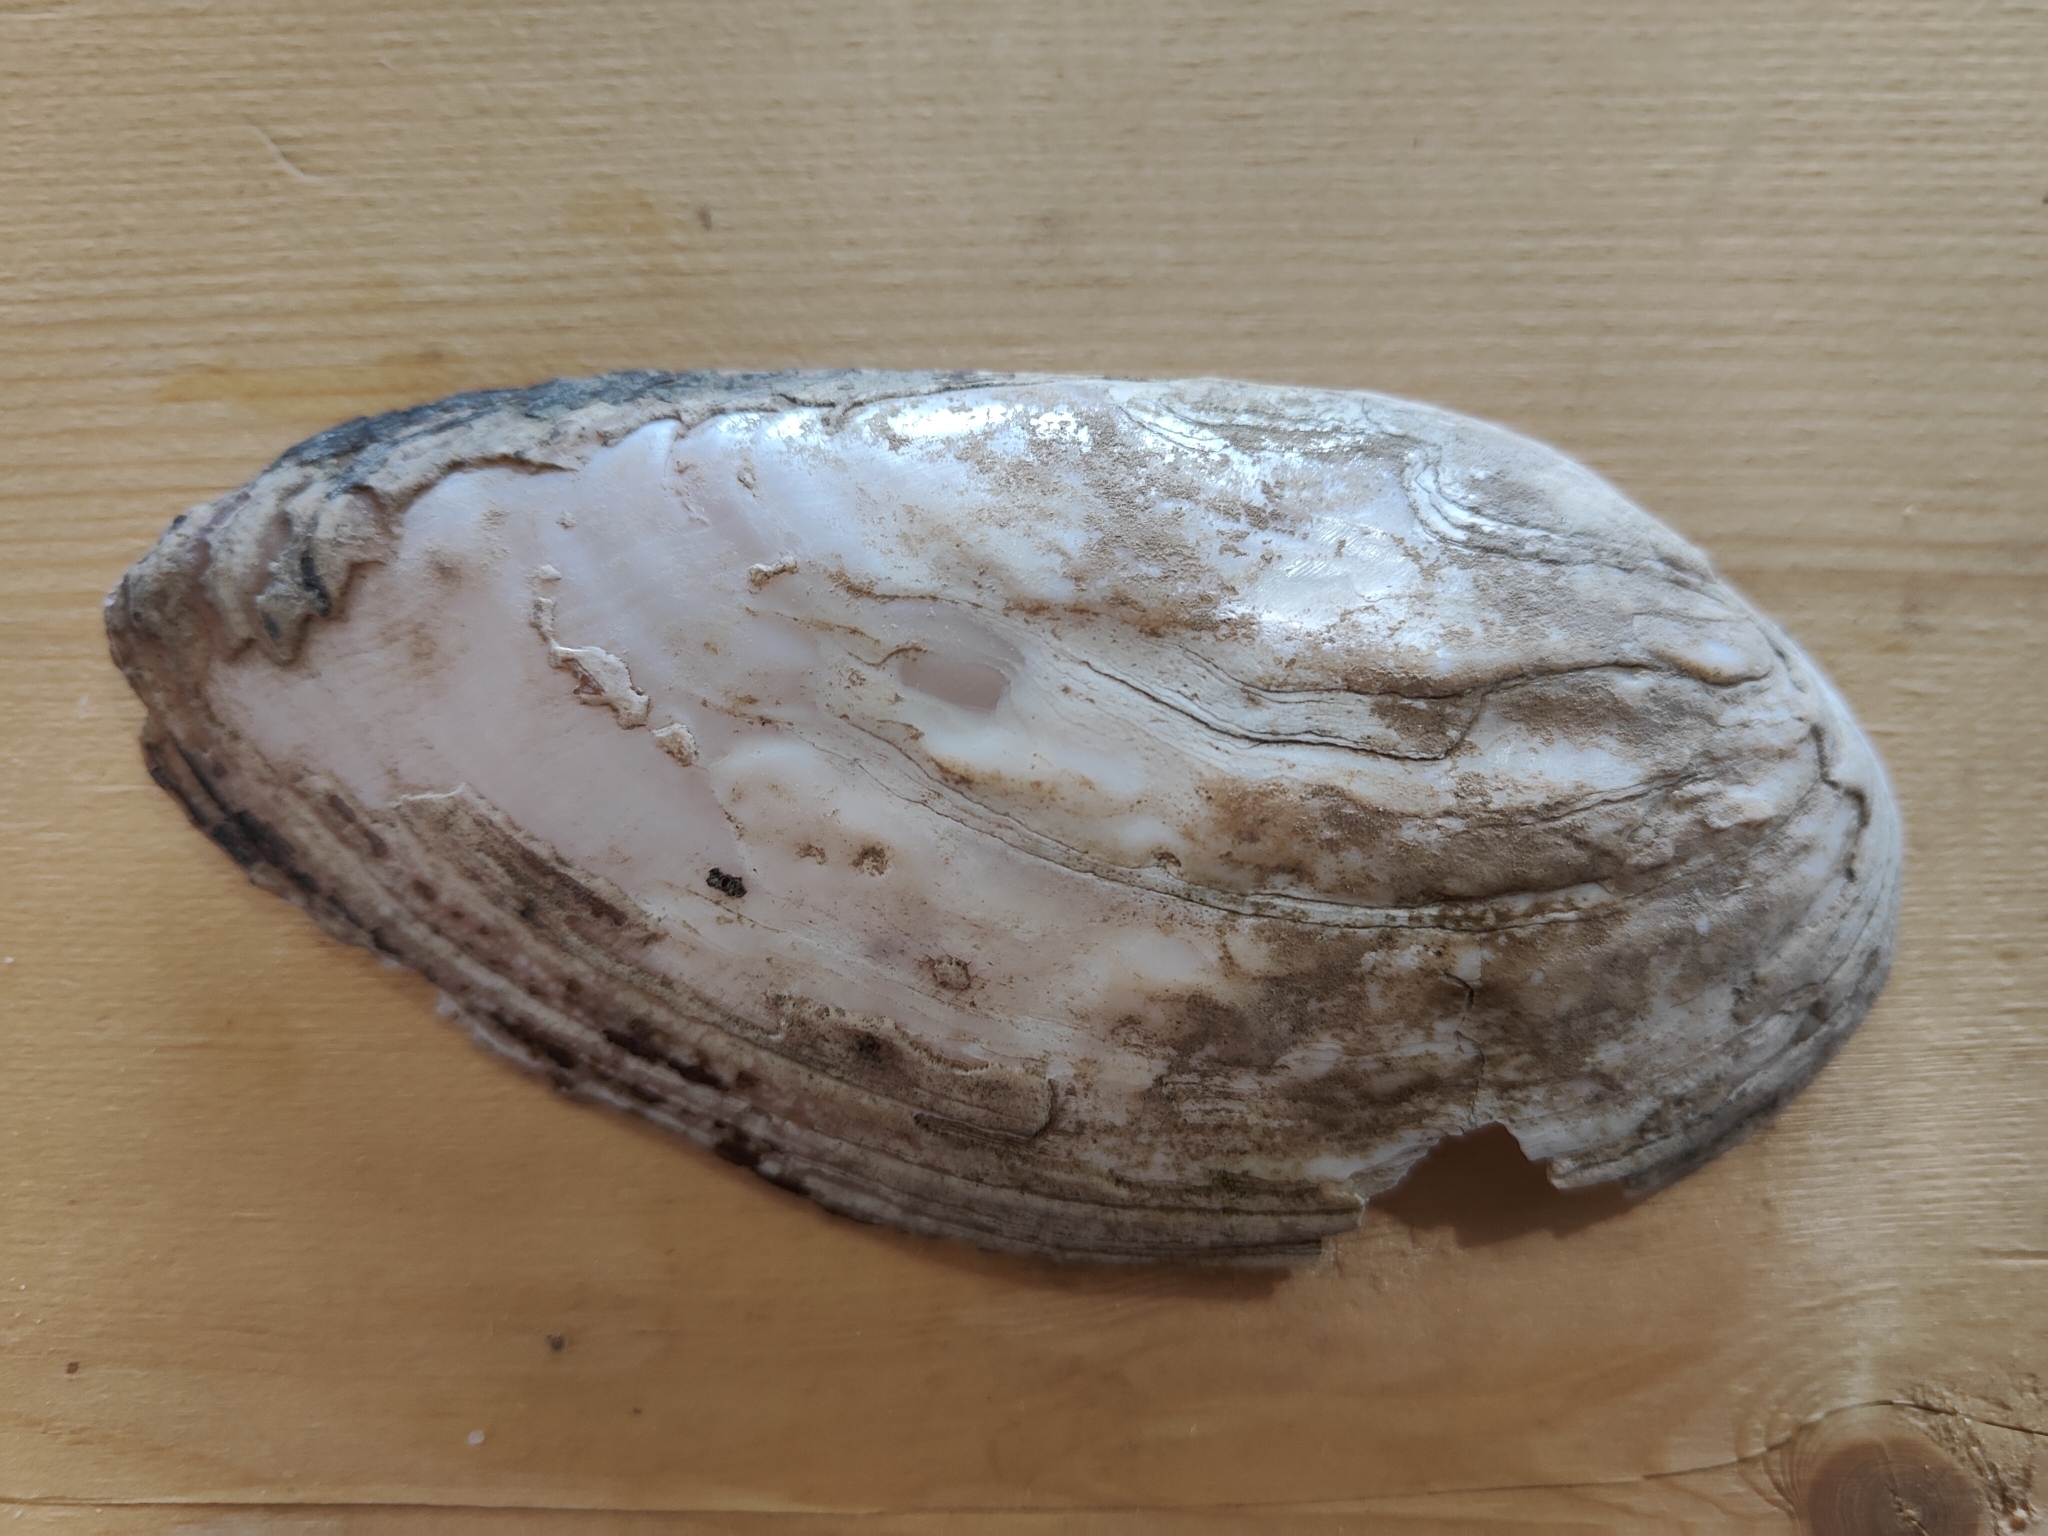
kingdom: Animalia
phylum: Mollusca
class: Bivalvia
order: Unionida
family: Unionidae
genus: Ligumia
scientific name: Ligumia recta
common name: Black sandshell
